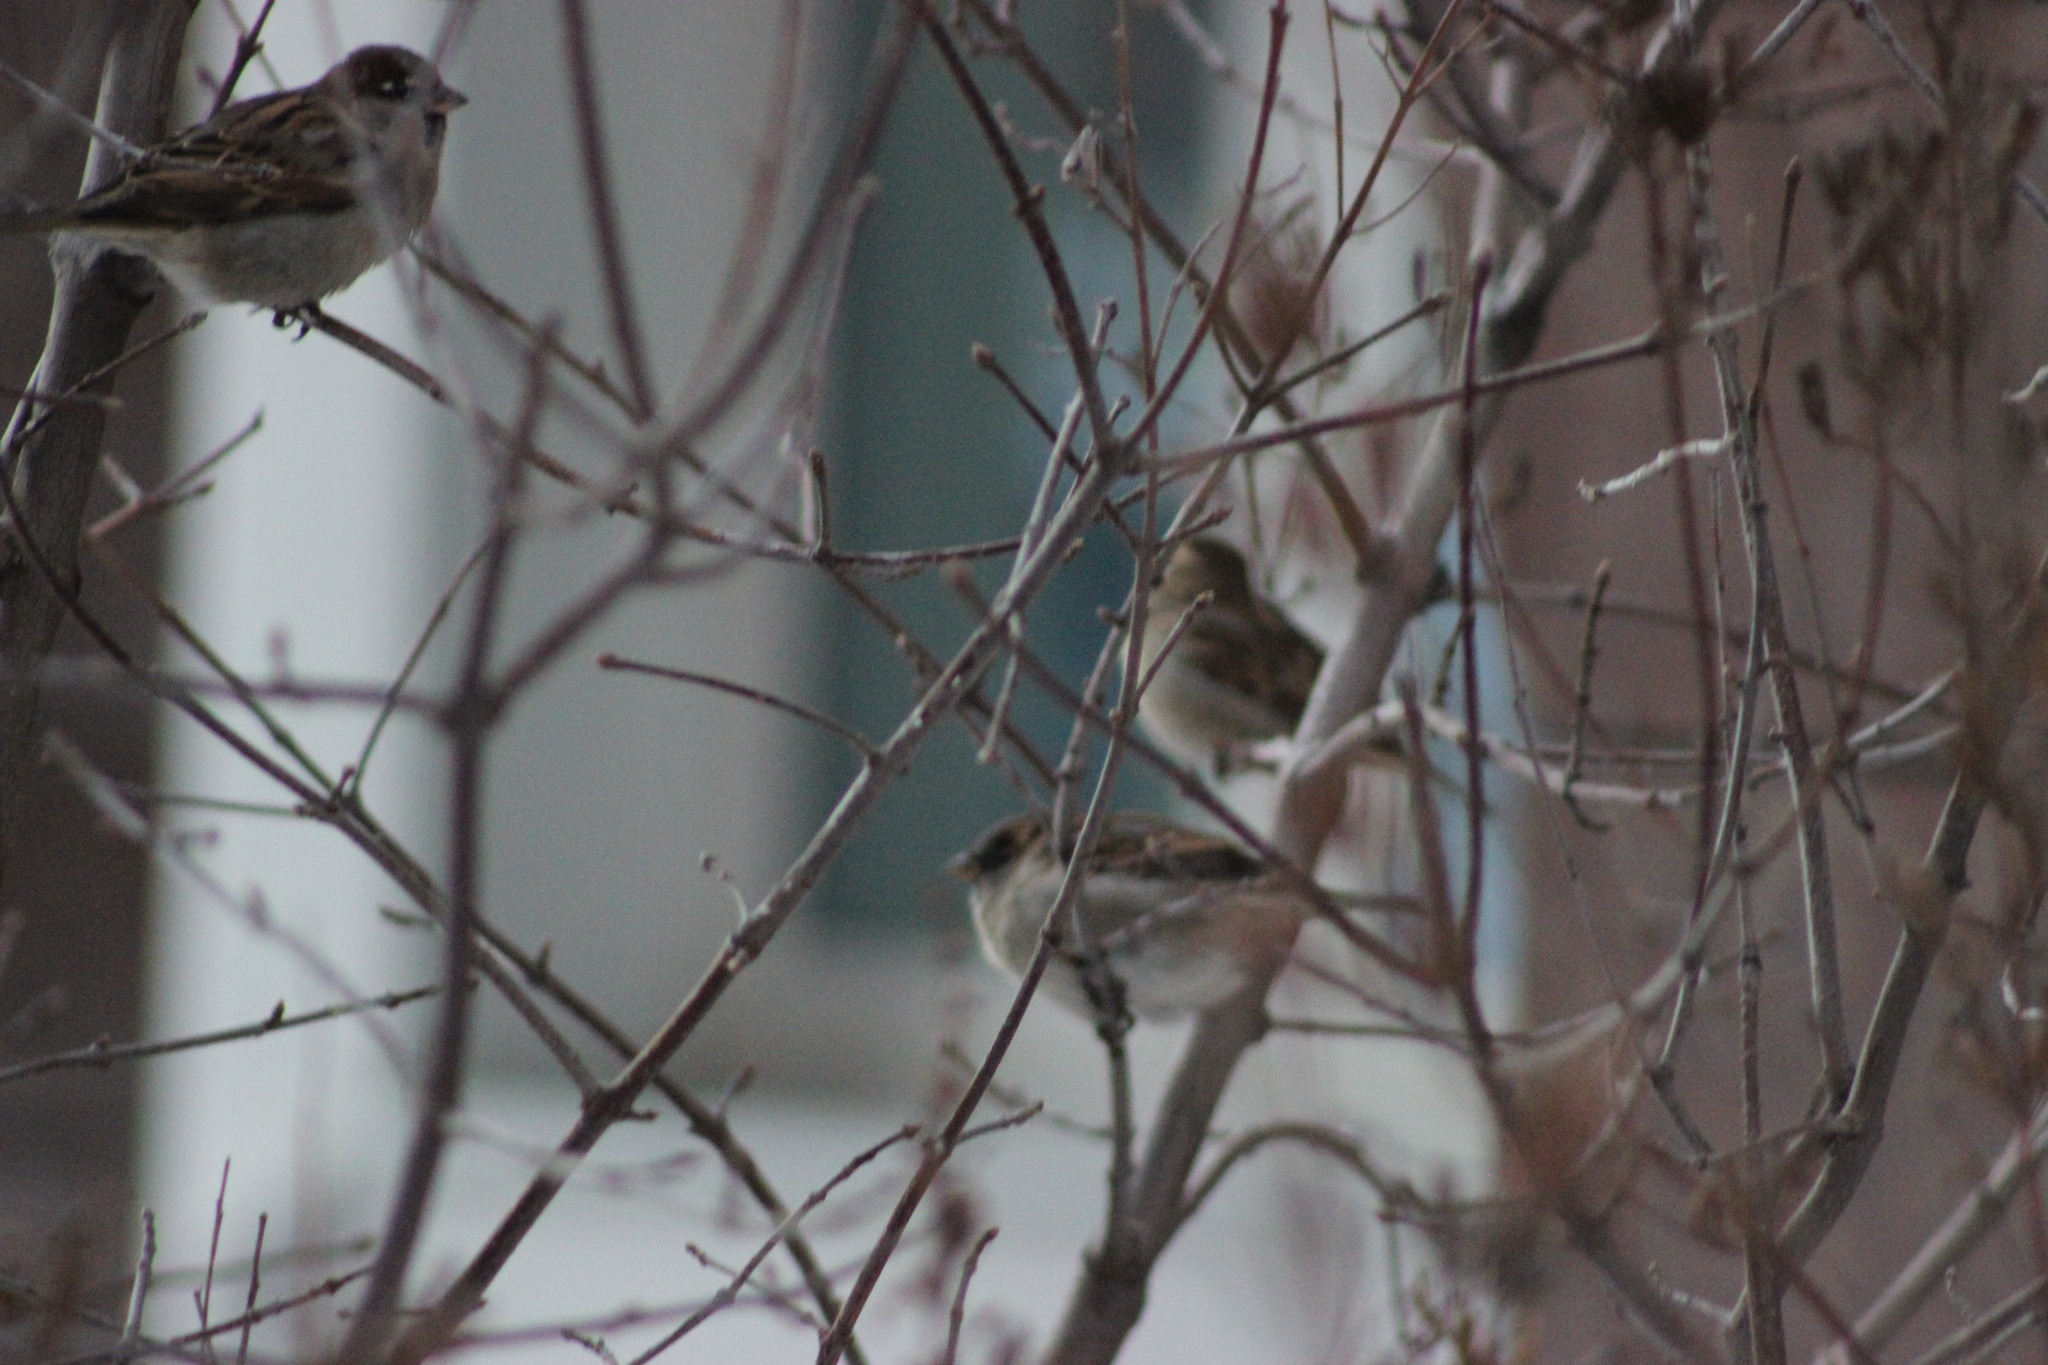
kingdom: Animalia
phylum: Chordata
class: Aves
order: Passeriformes
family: Passeridae
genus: Passer
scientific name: Passer domesticus
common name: House sparrow
